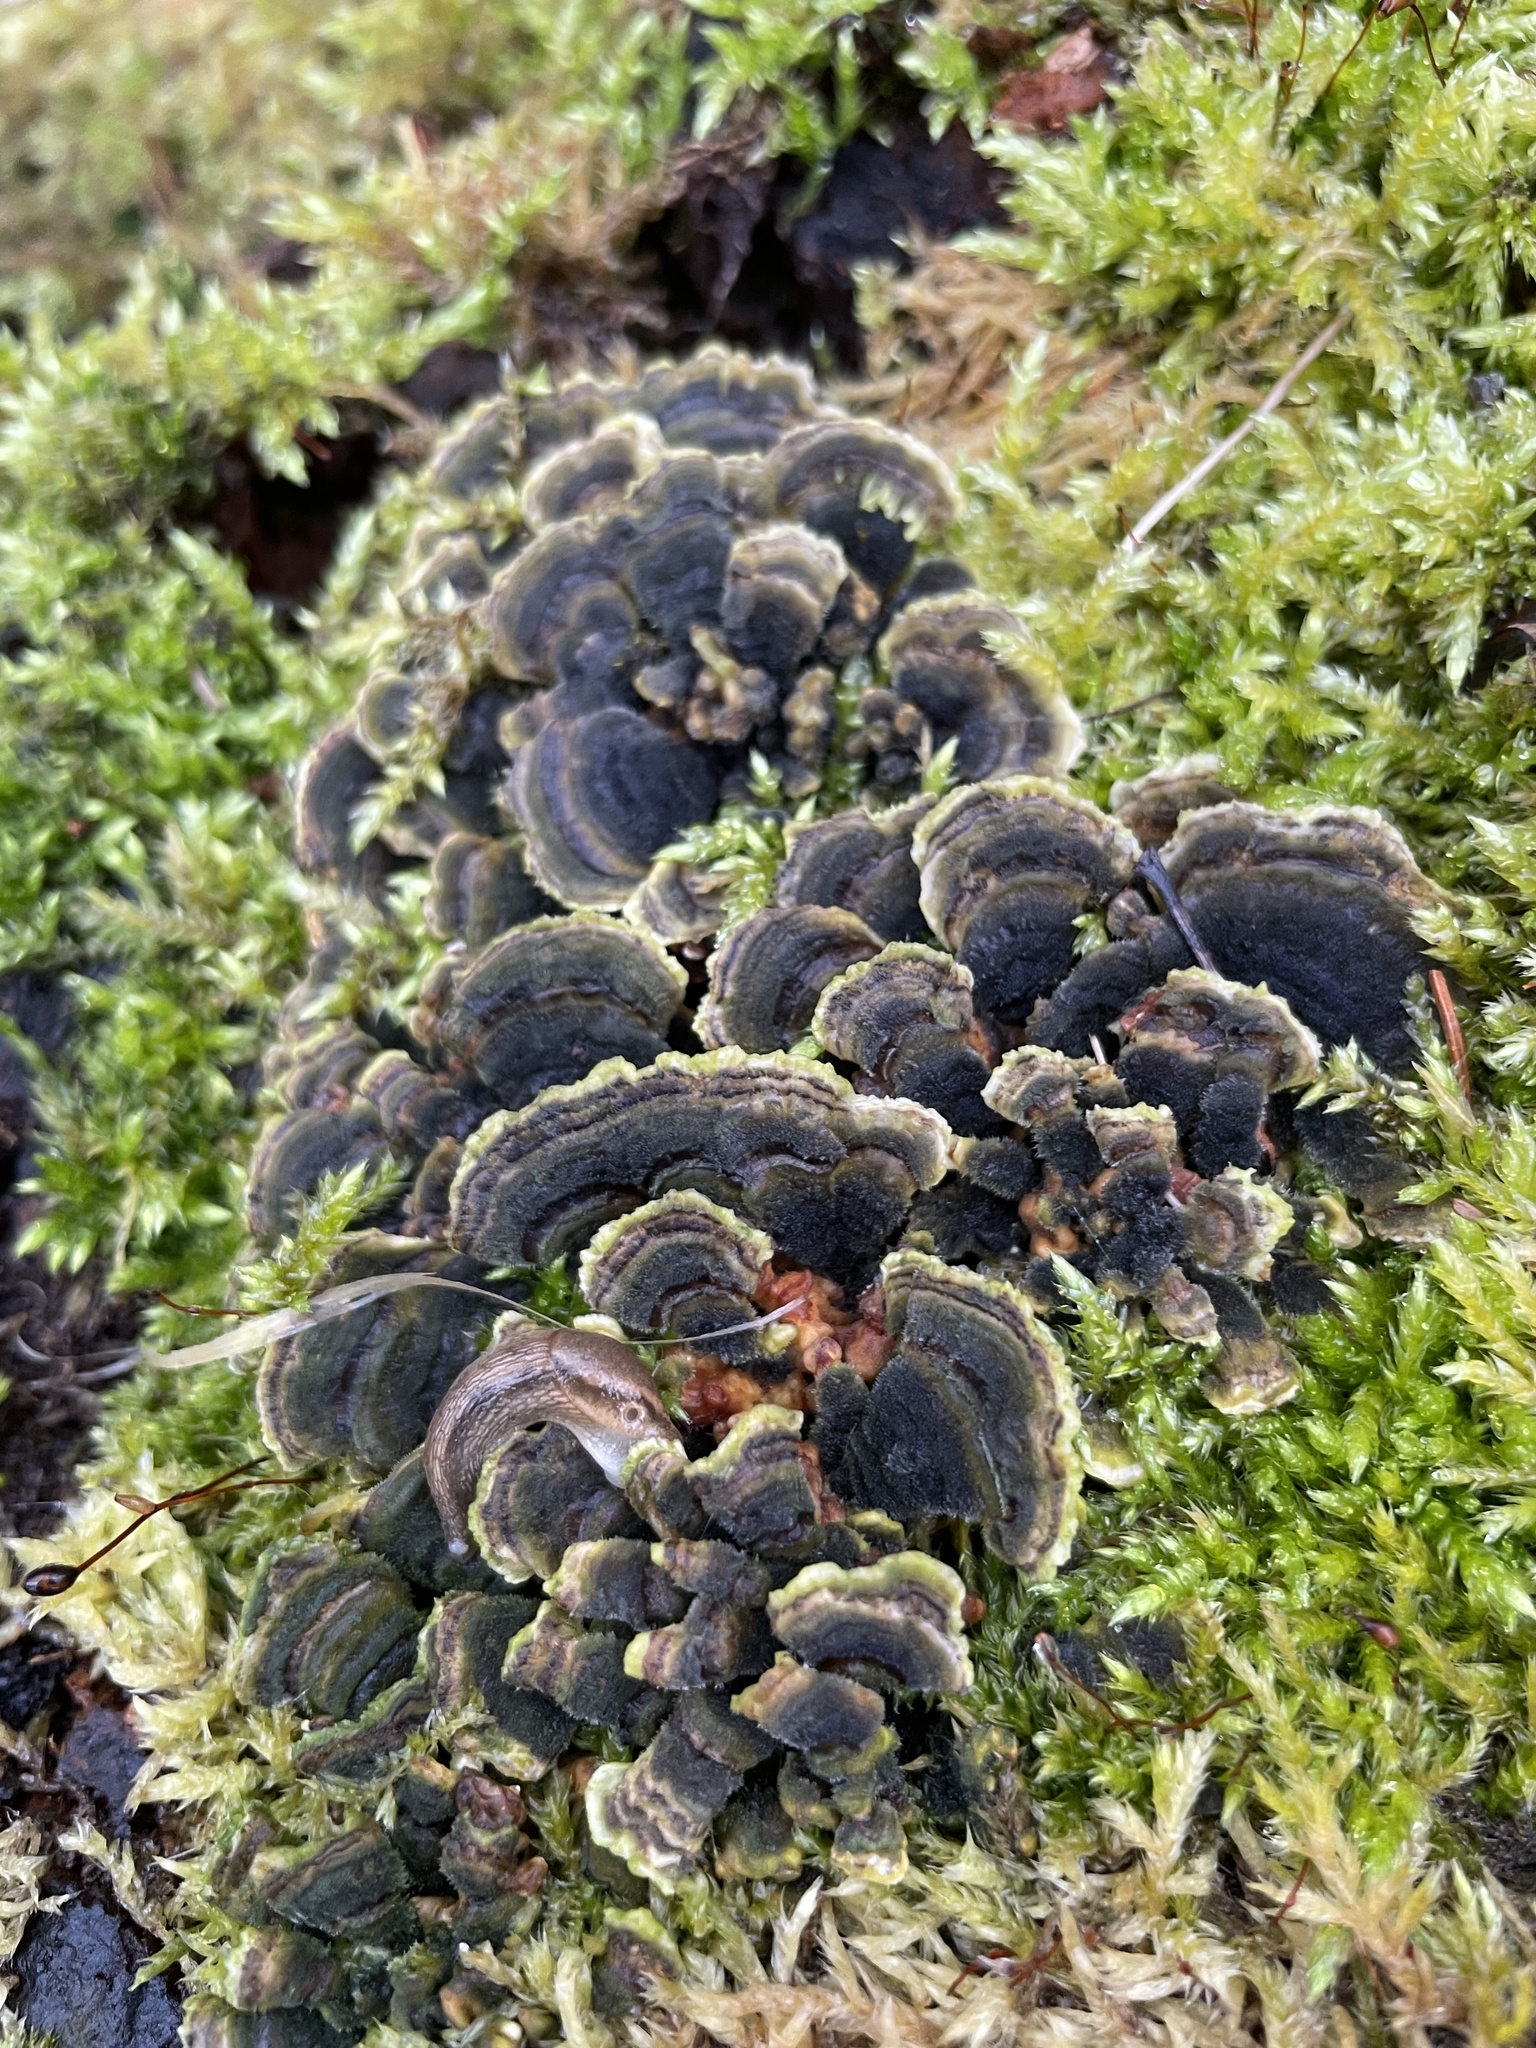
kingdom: Fungi
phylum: Basidiomycota
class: Agaricomycetes
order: Polyporales
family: Polyporaceae
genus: Trametes
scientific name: Trametes versicolor
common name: Turkeytail
